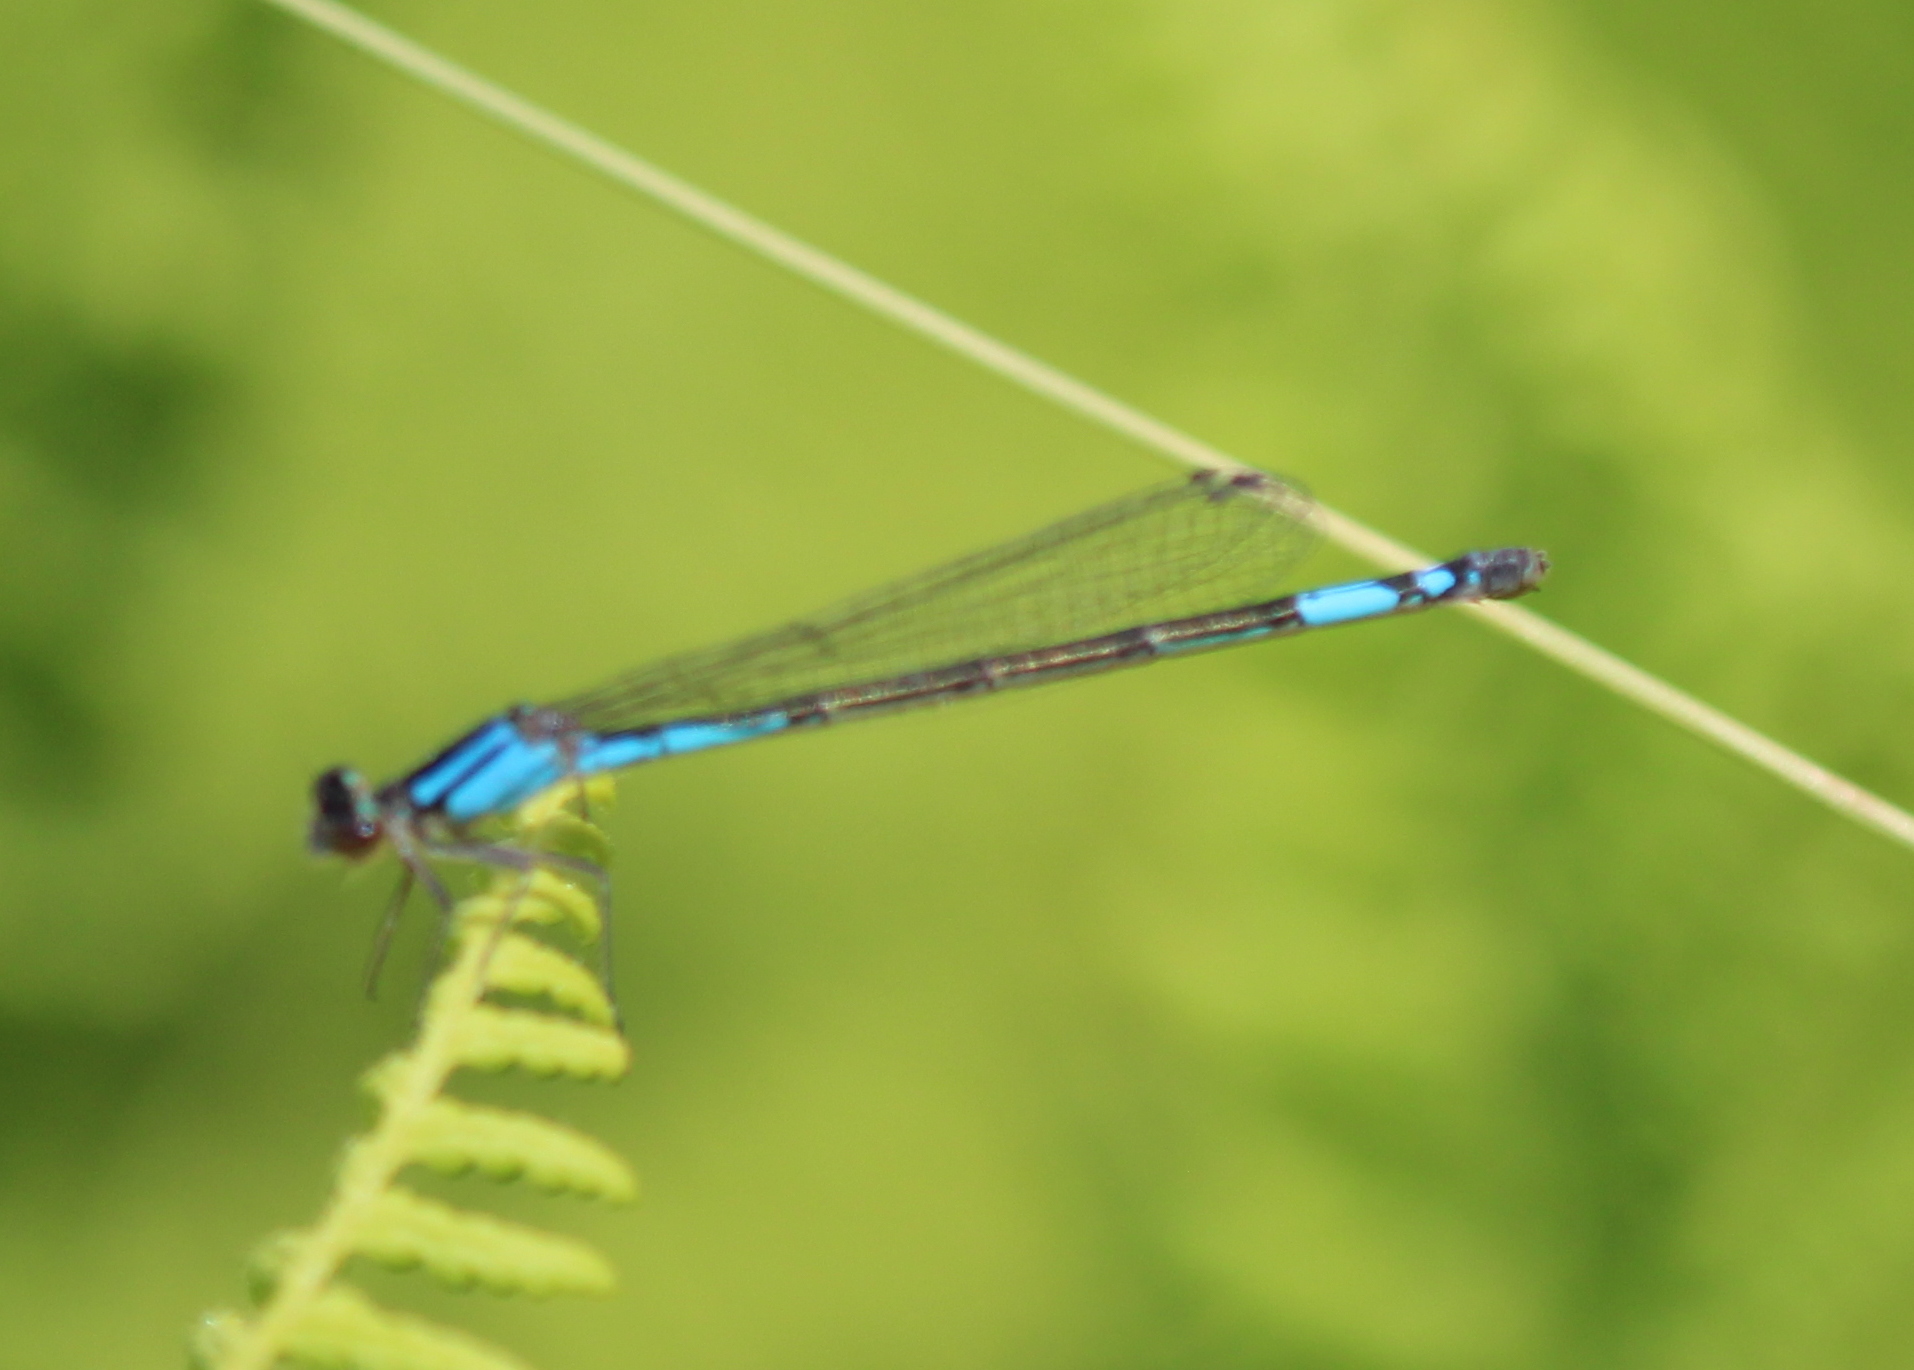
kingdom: Animalia
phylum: Arthropoda
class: Insecta
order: Odonata
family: Coenagrionidae
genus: Enallagma
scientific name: Enallagma aspersum
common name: Azure bluet
